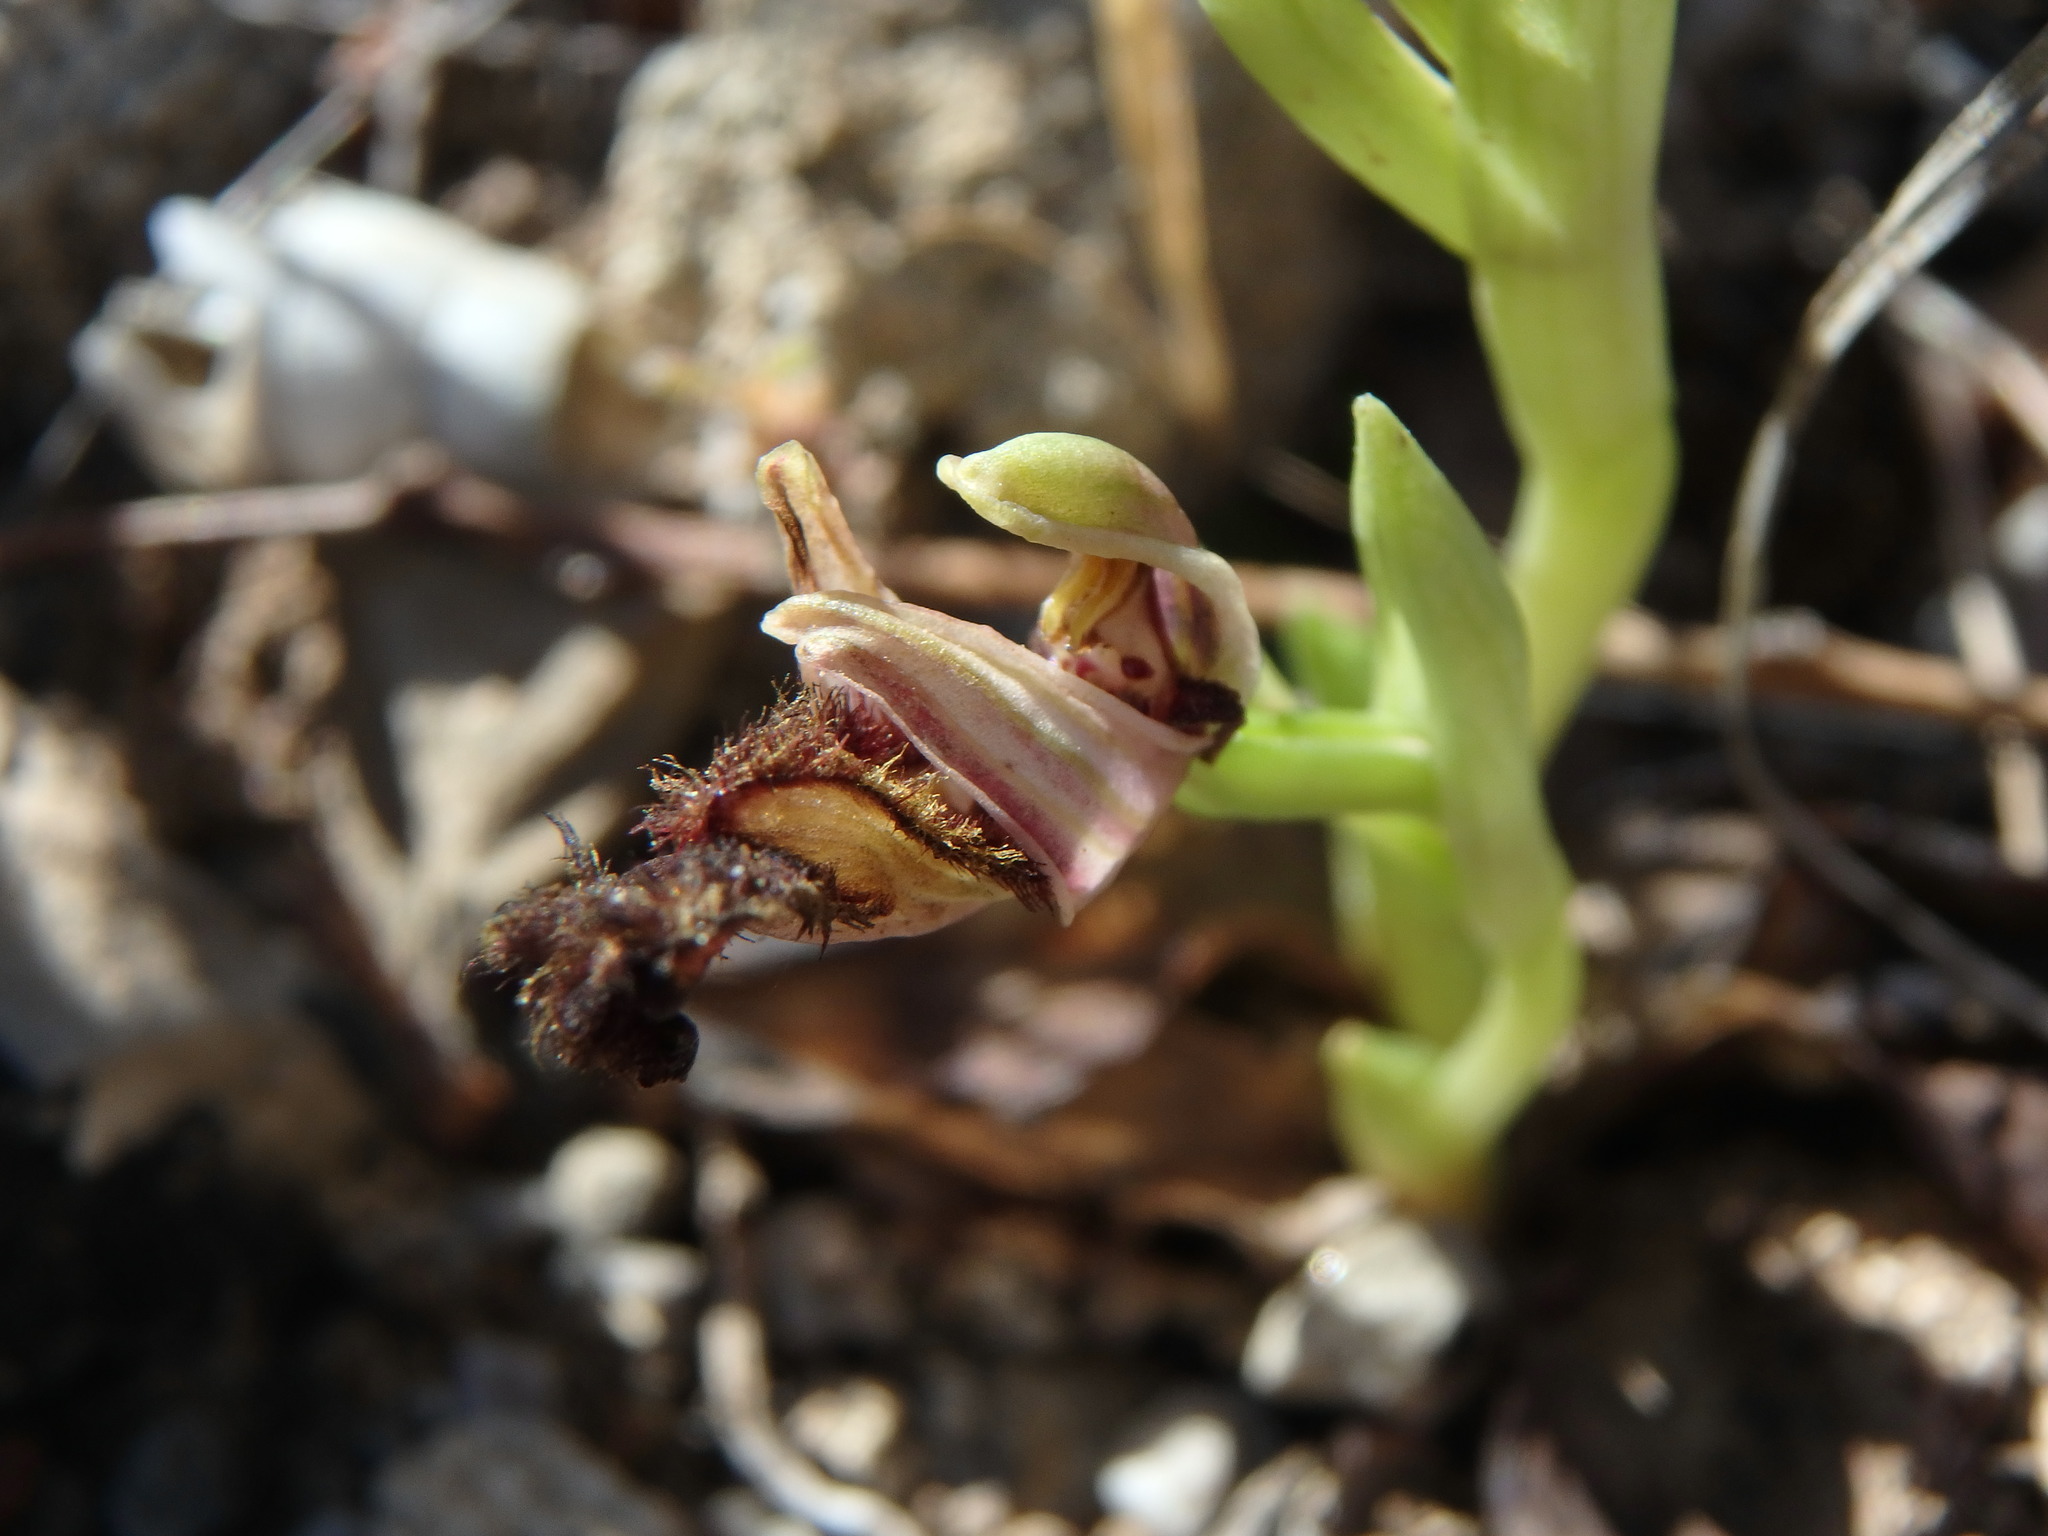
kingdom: Plantae
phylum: Tracheophyta
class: Liliopsida
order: Asparagales
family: Orchidaceae
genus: Ophrys
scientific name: Ophrys speculum
